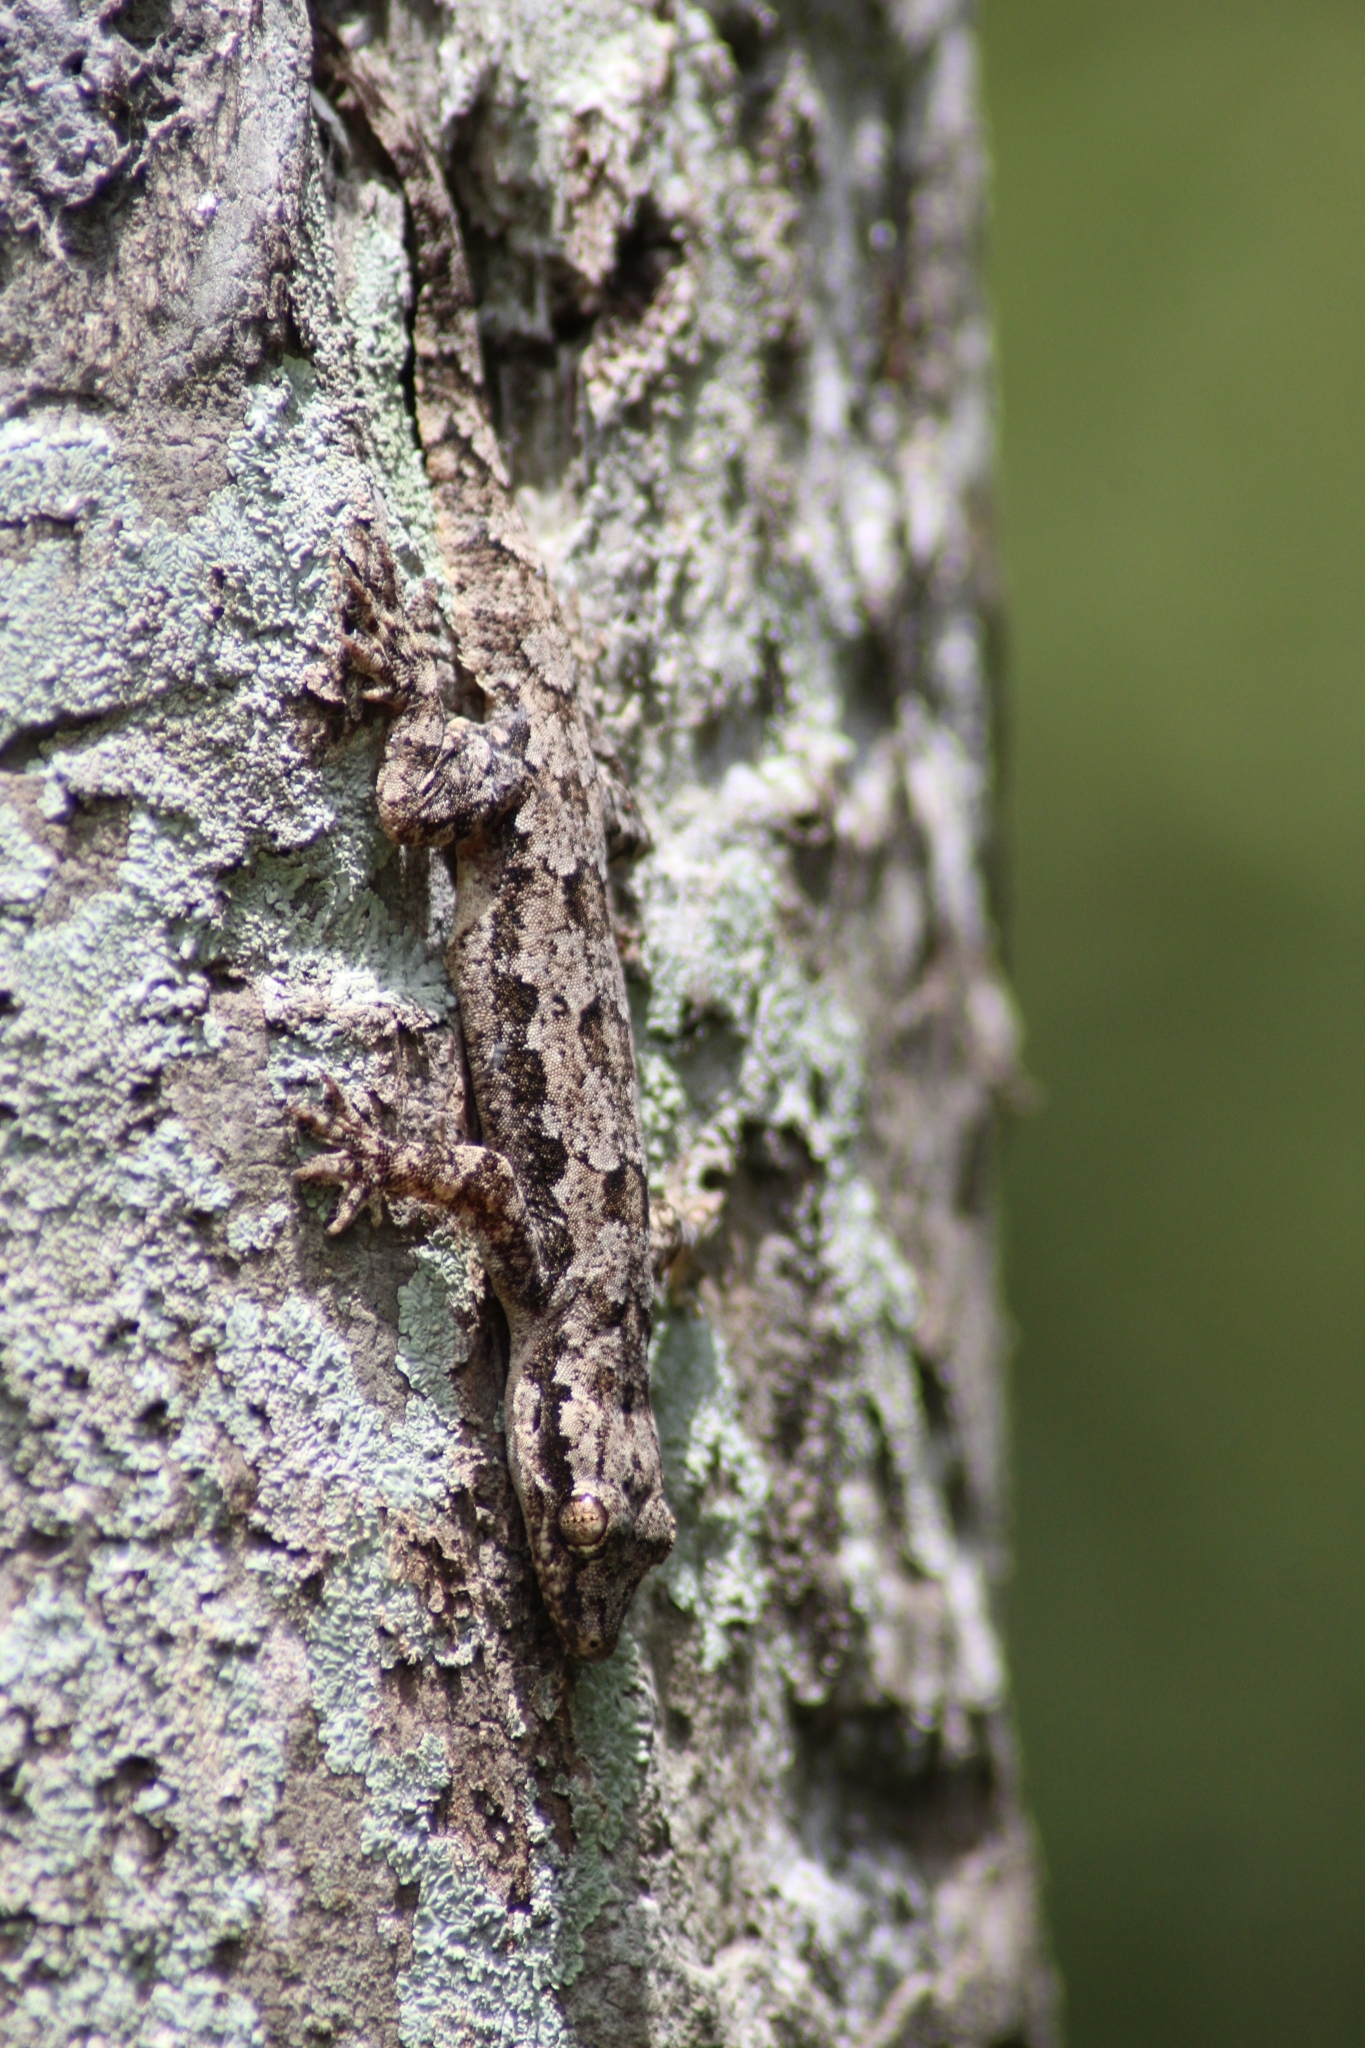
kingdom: Animalia
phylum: Chordata
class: Squamata
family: Gekkonidae
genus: Hemidactylus
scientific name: Hemidactylus platyurus
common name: Flat-tailed house gecko
